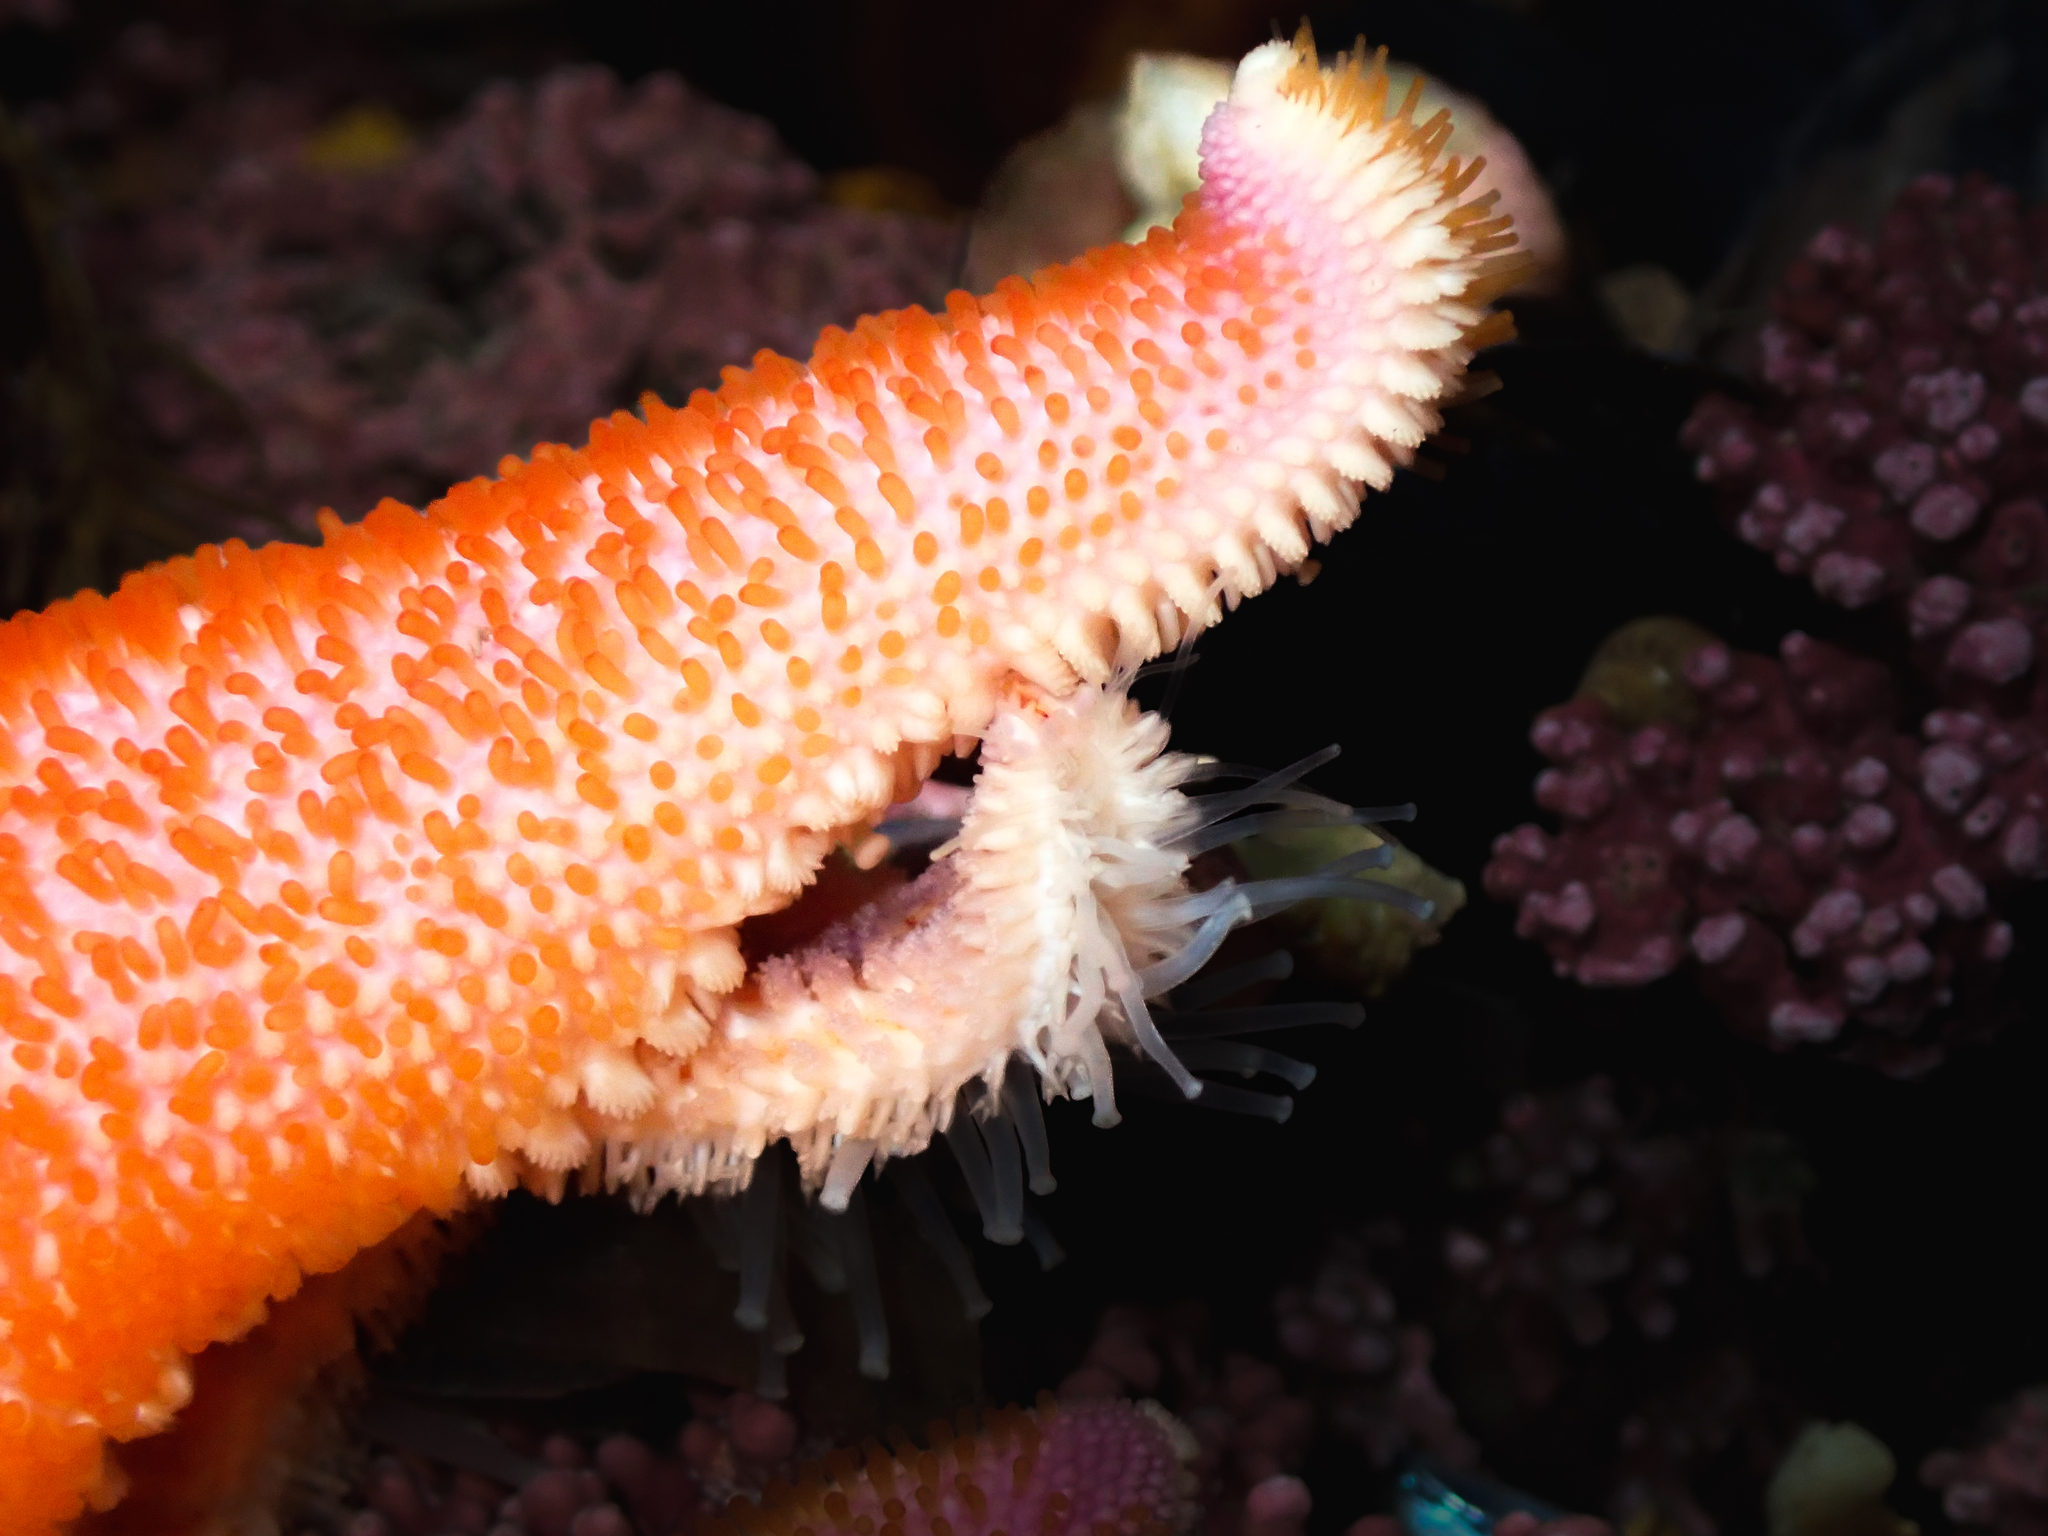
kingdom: Animalia
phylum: Echinodermata
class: Asteroidea
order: Valvatida
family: Solasteridae
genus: Solaster
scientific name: Solaster endeca
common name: Purple sun star
